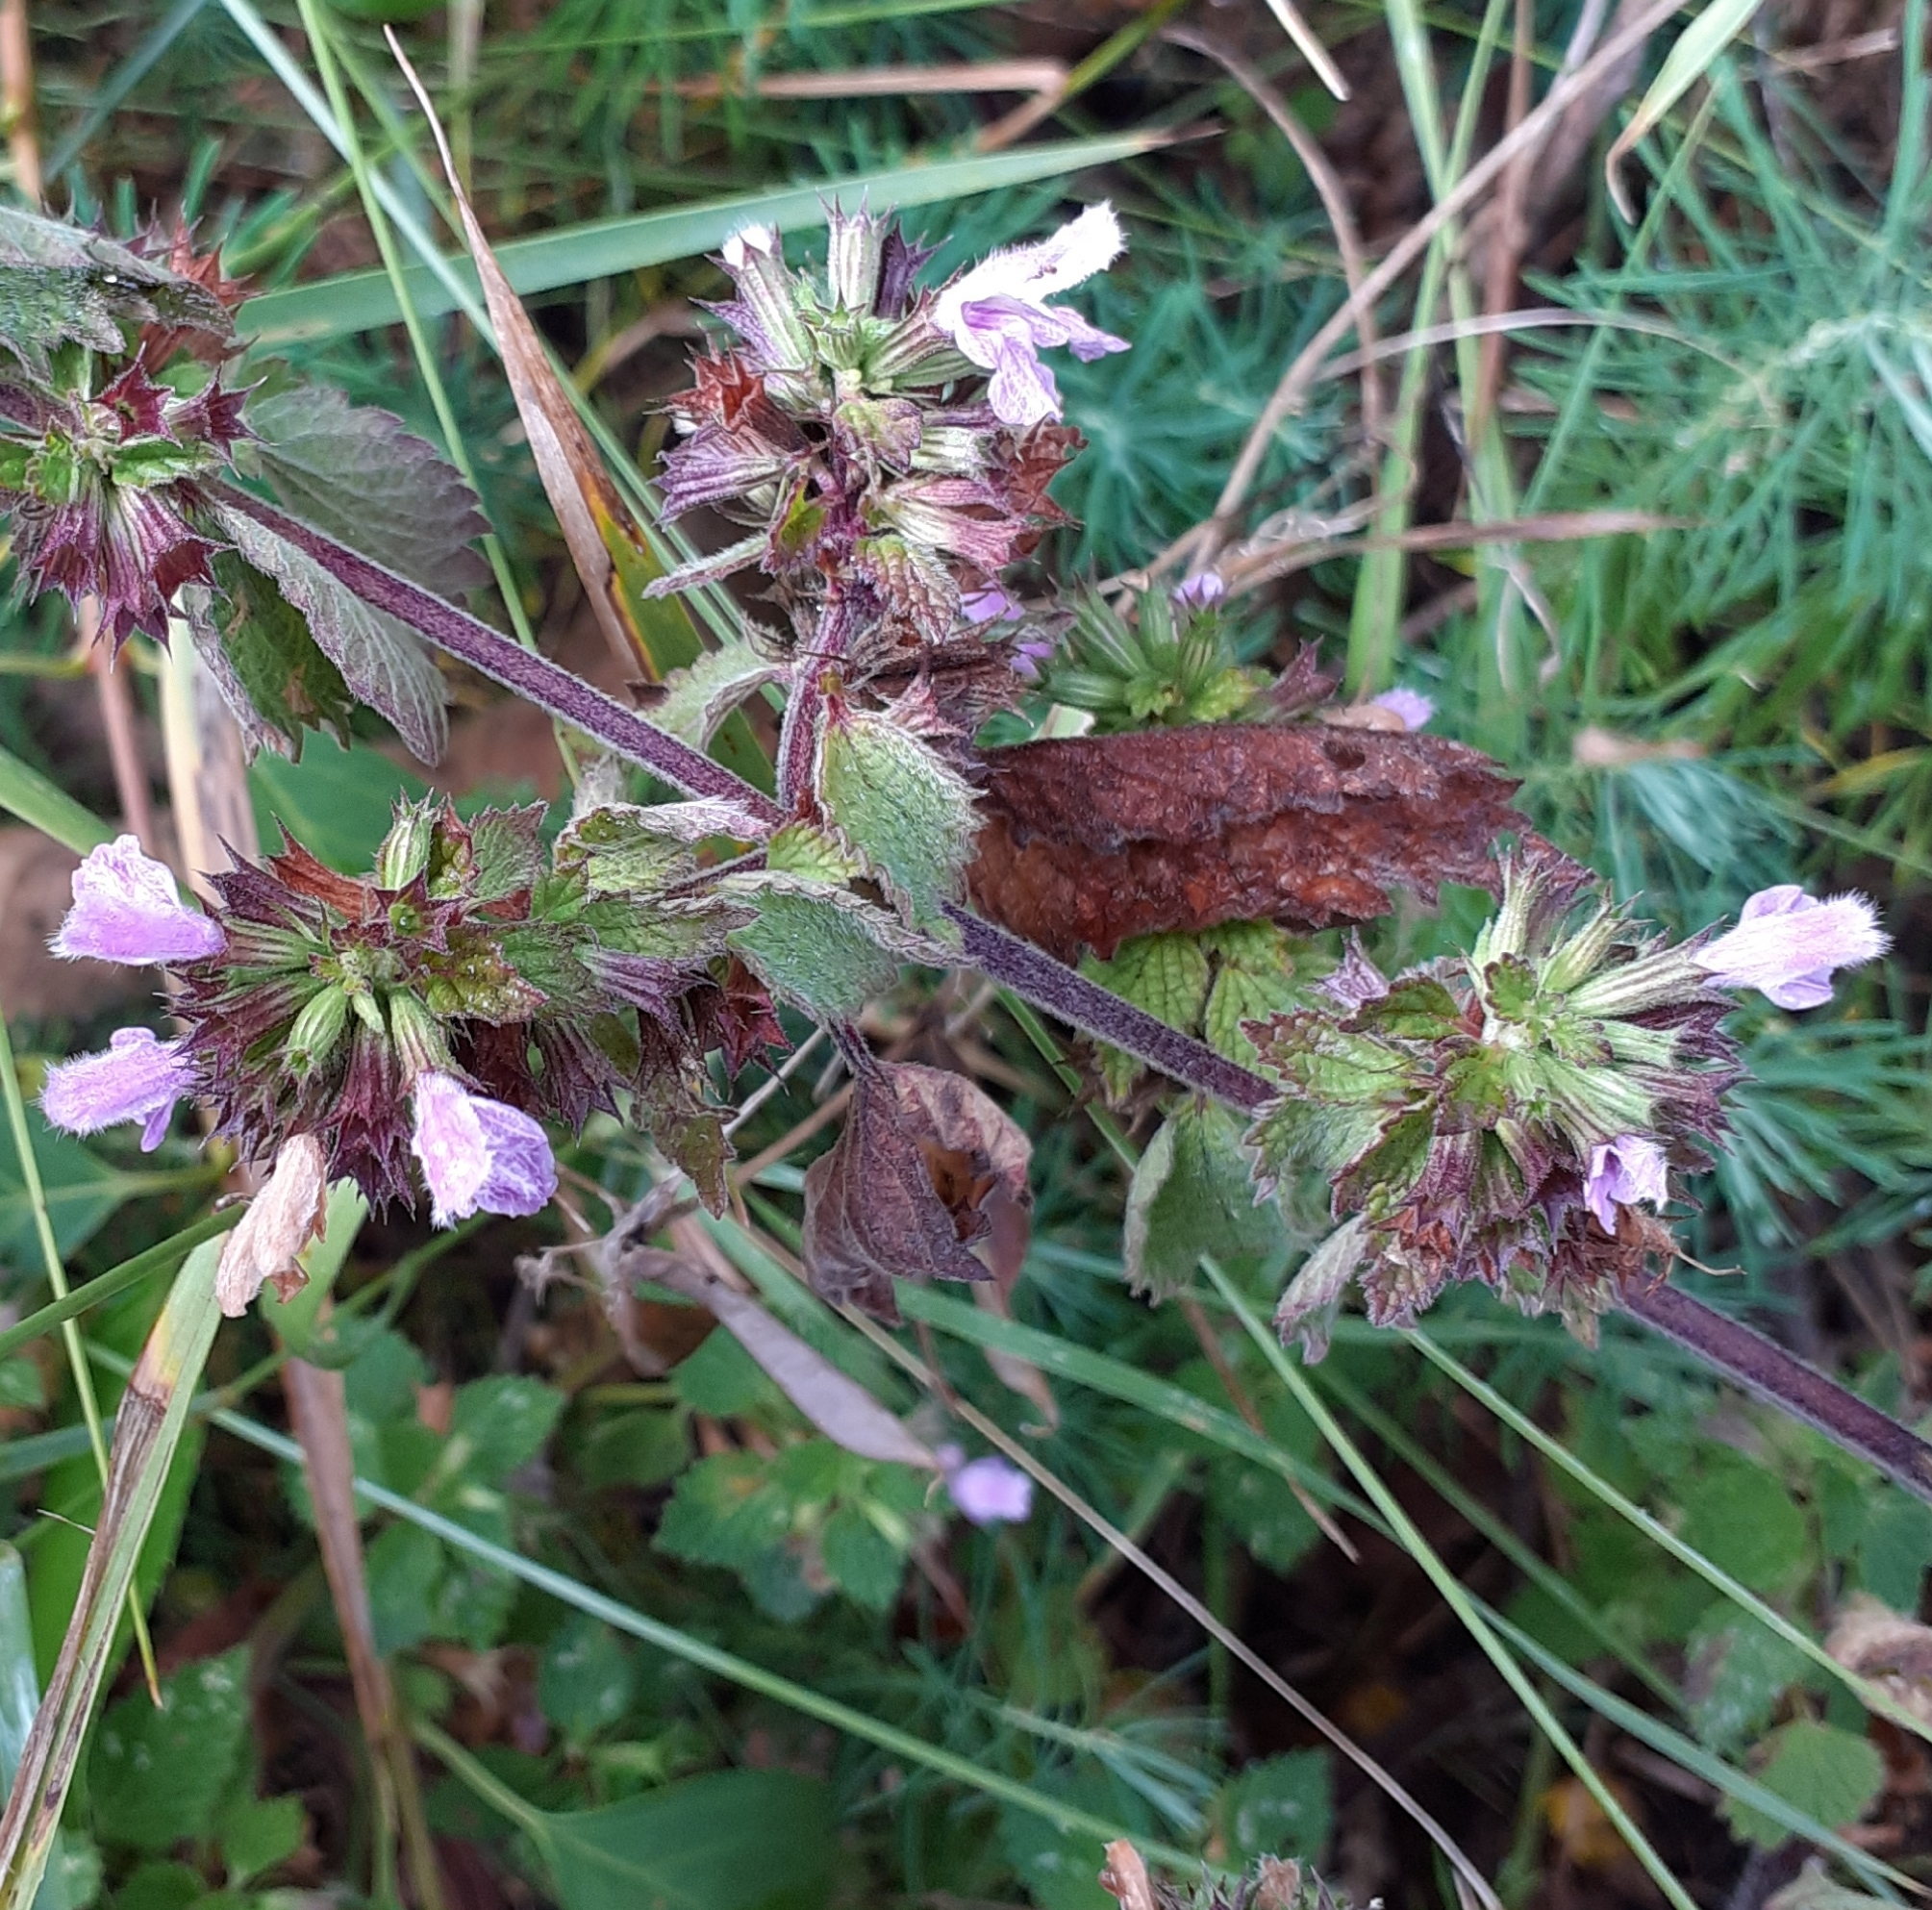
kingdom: Plantae
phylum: Tracheophyta
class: Magnoliopsida
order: Lamiales
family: Lamiaceae
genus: Ballota
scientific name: Ballota nigra
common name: Black horehound
